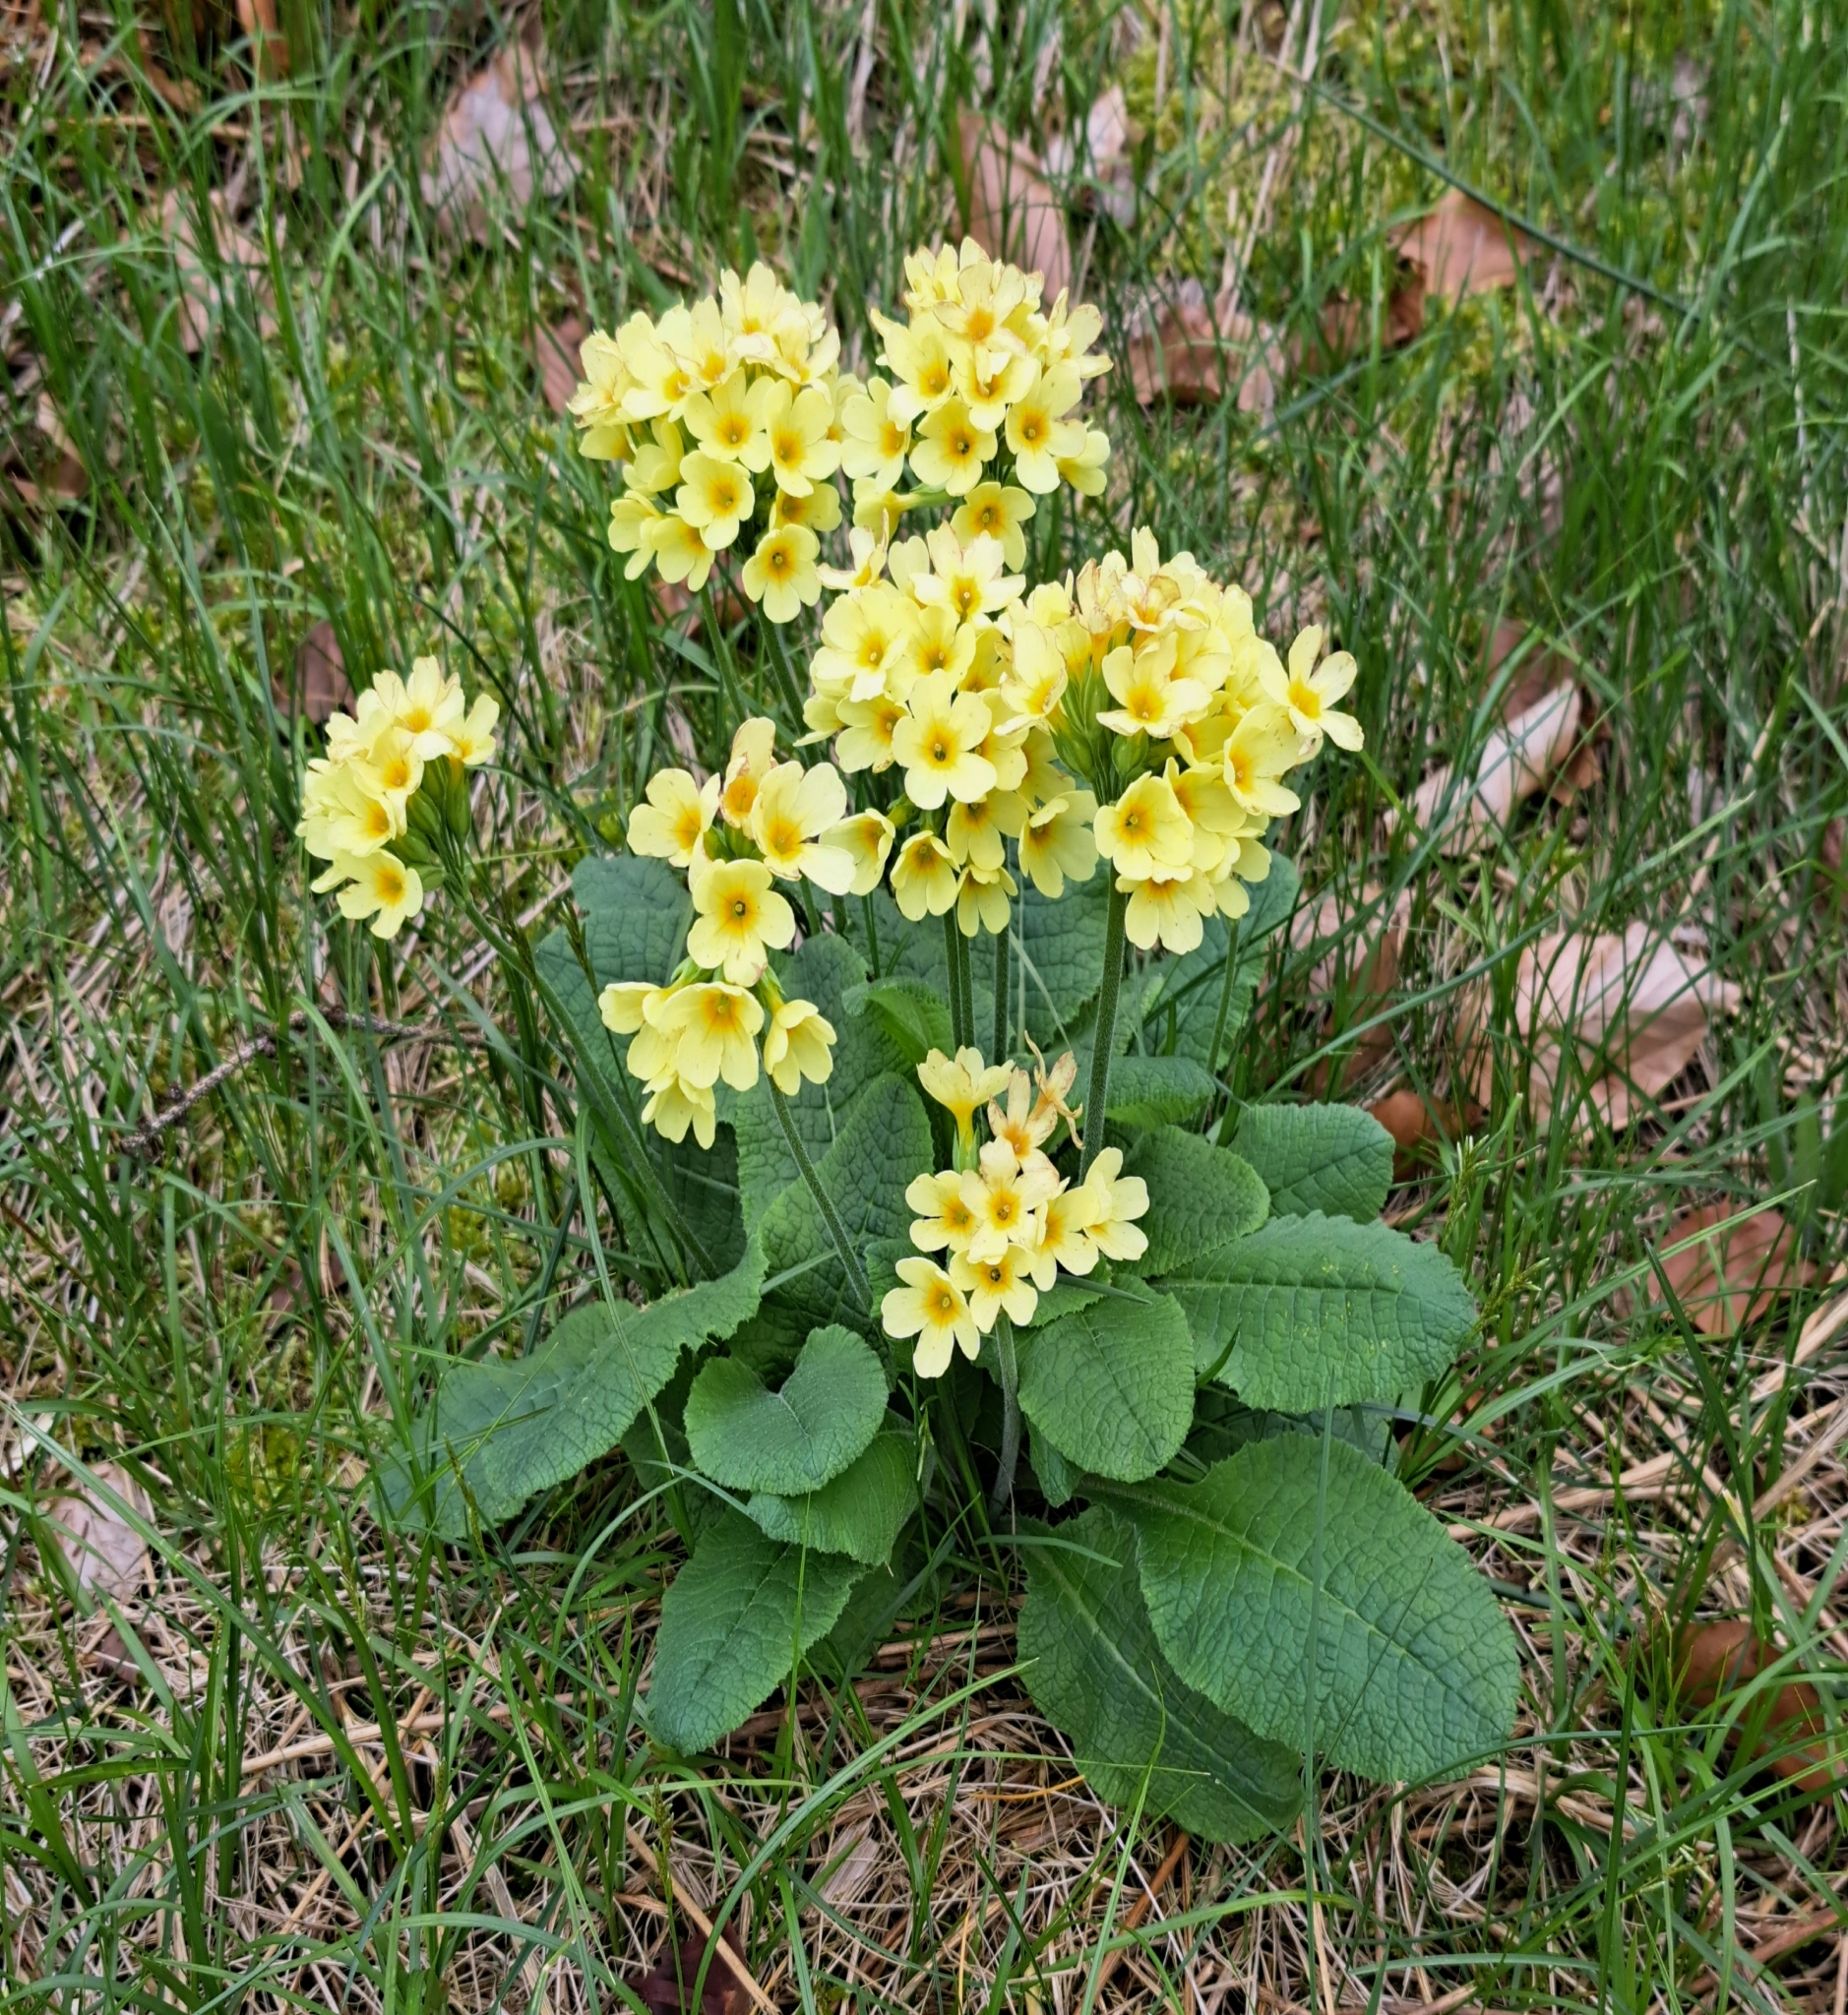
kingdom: Plantae
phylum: Tracheophyta
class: Magnoliopsida
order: Ericales
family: Primulaceae
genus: Primula
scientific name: Primula elatior
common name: Oxlip
